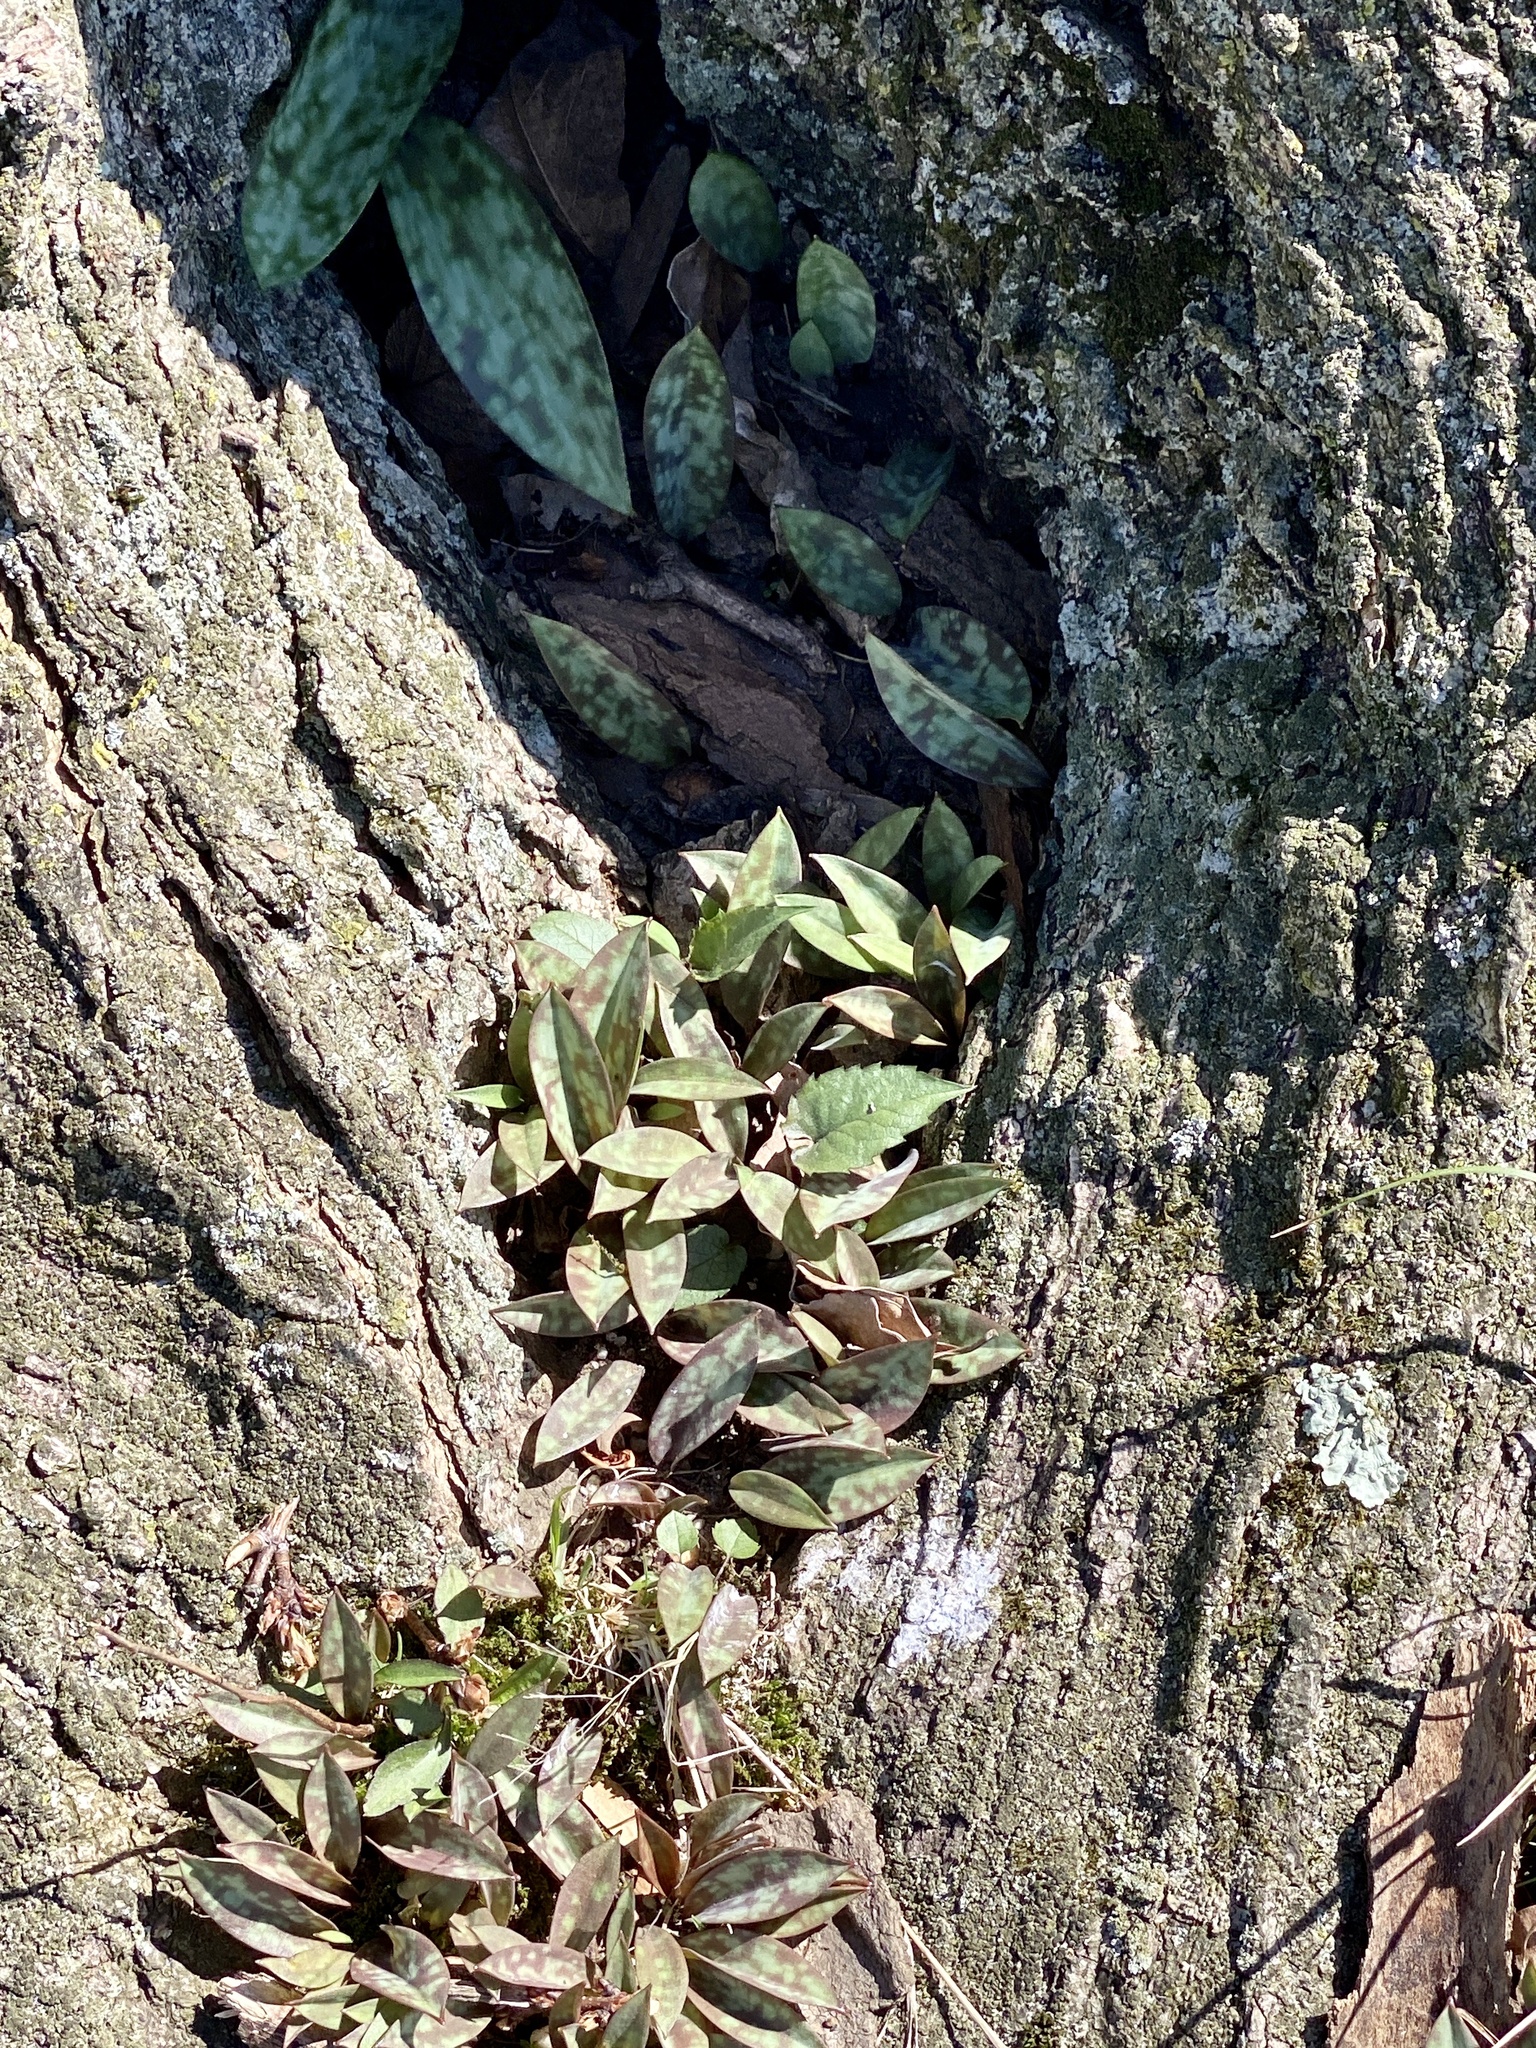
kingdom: Plantae
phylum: Tracheophyta
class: Liliopsida
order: Liliales
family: Liliaceae
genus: Erythronium
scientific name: Erythronium americanum
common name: Yellow adder's-tongue
